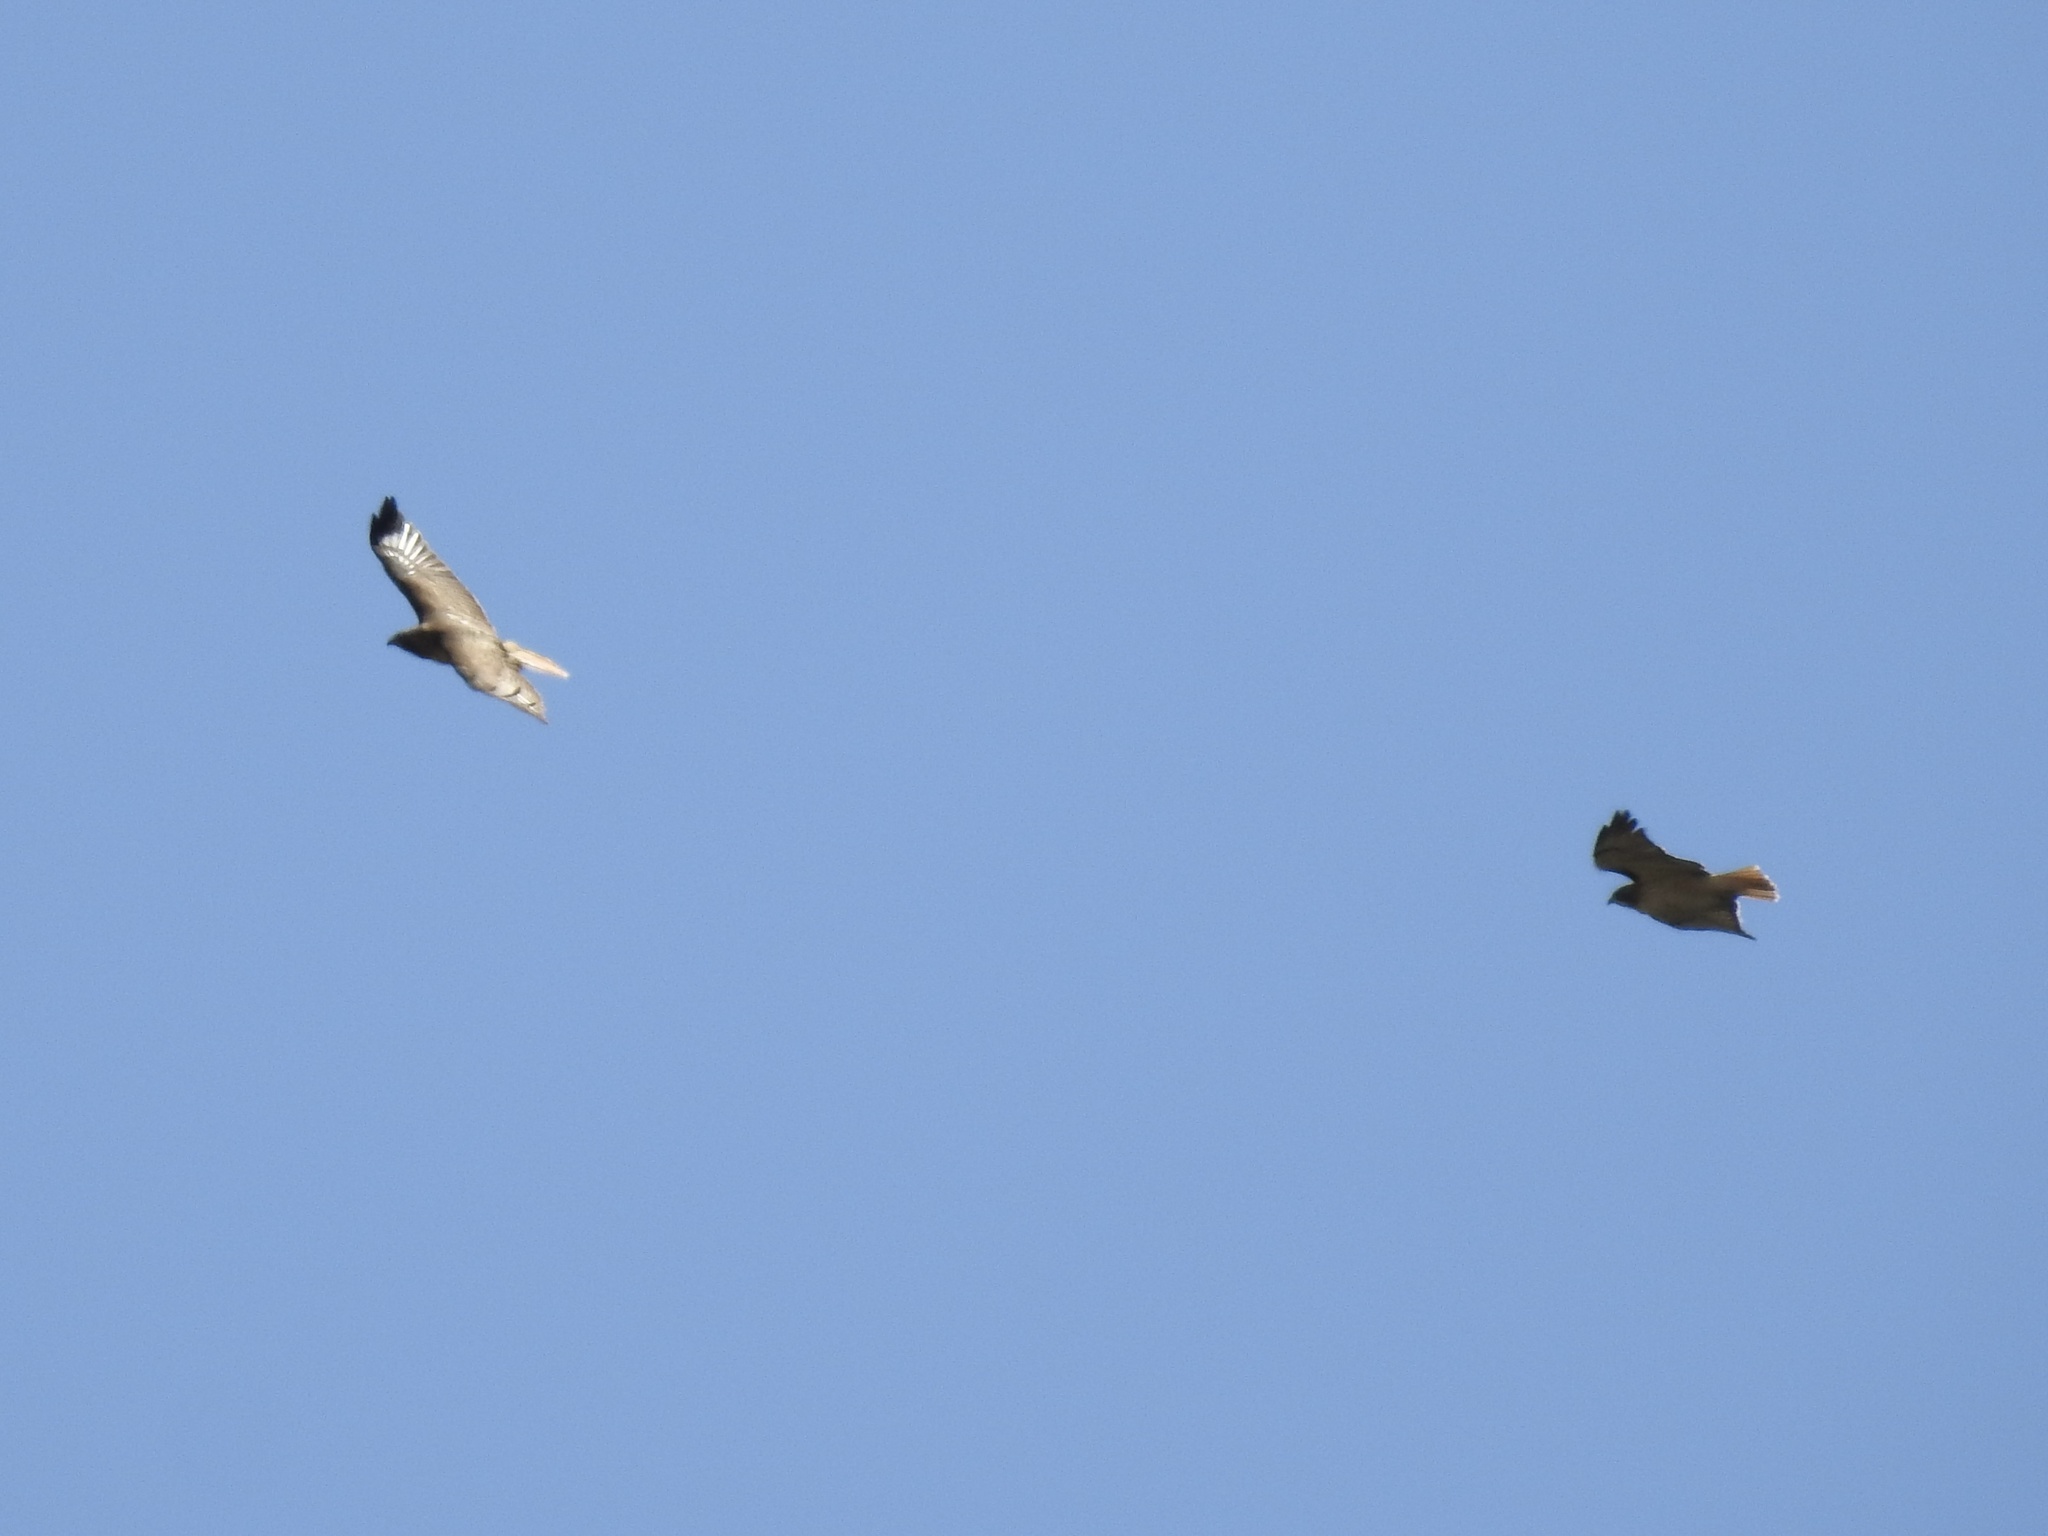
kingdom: Animalia
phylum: Chordata
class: Aves
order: Accipitriformes
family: Accipitridae
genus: Buteo
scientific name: Buteo jamaicensis
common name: Red-tailed hawk
